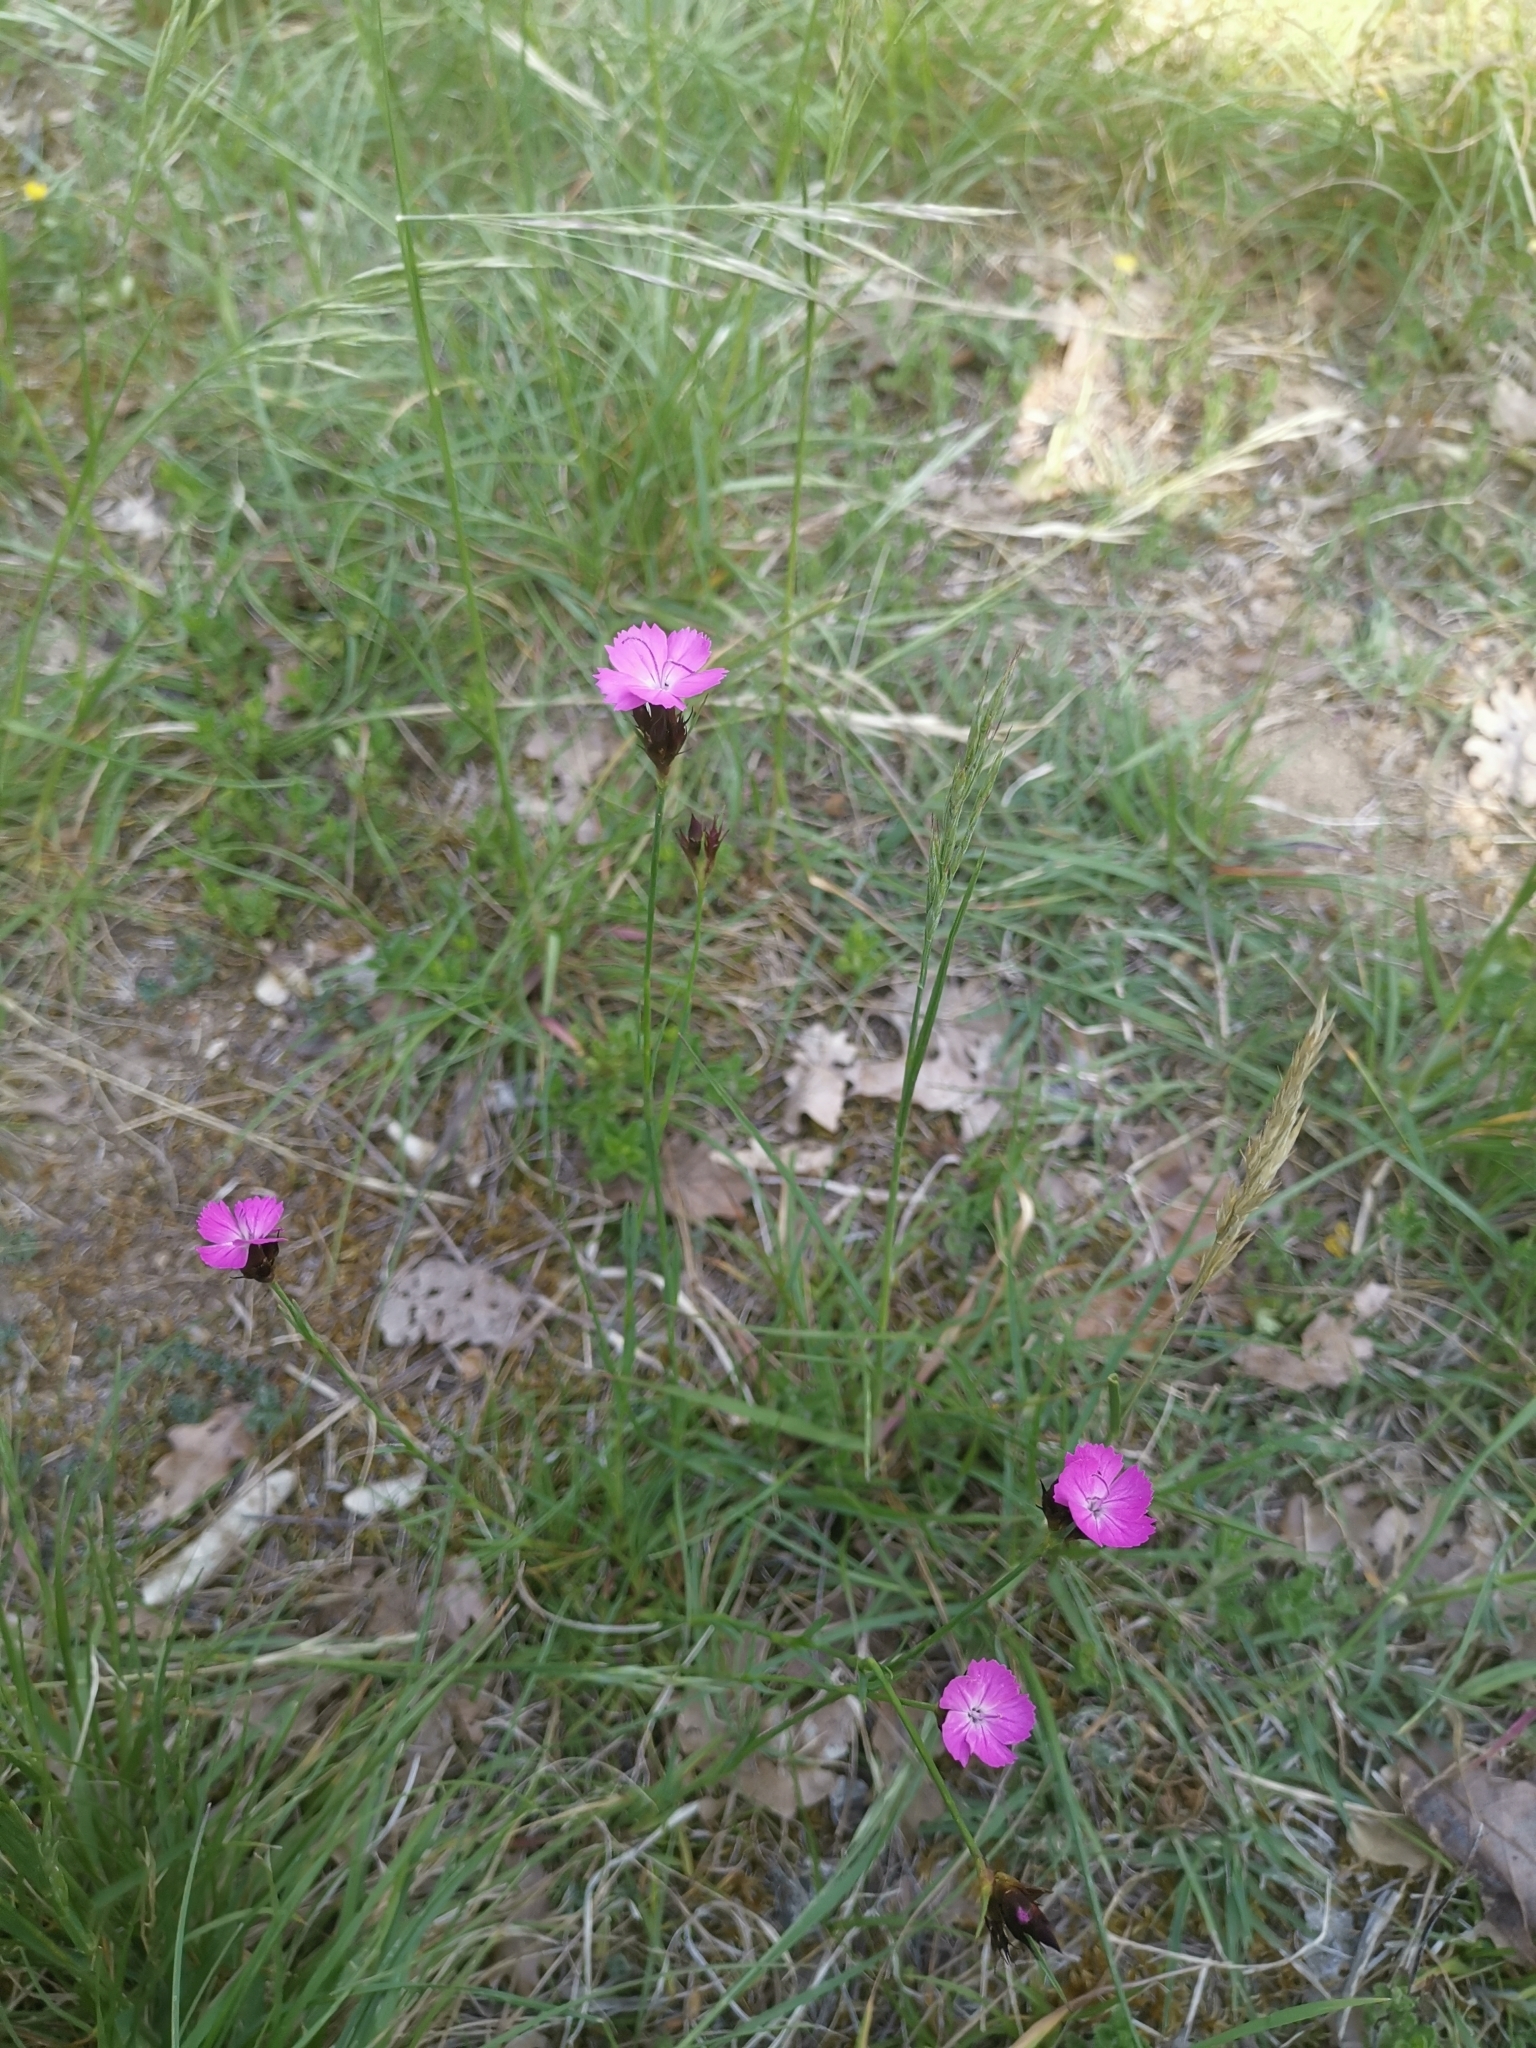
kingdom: Plantae
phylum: Tracheophyta
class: Magnoliopsida
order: Caryophyllales
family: Caryophyllaceae
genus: Dianthus
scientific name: Dianthus carthusianorum
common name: Carthusian pink
